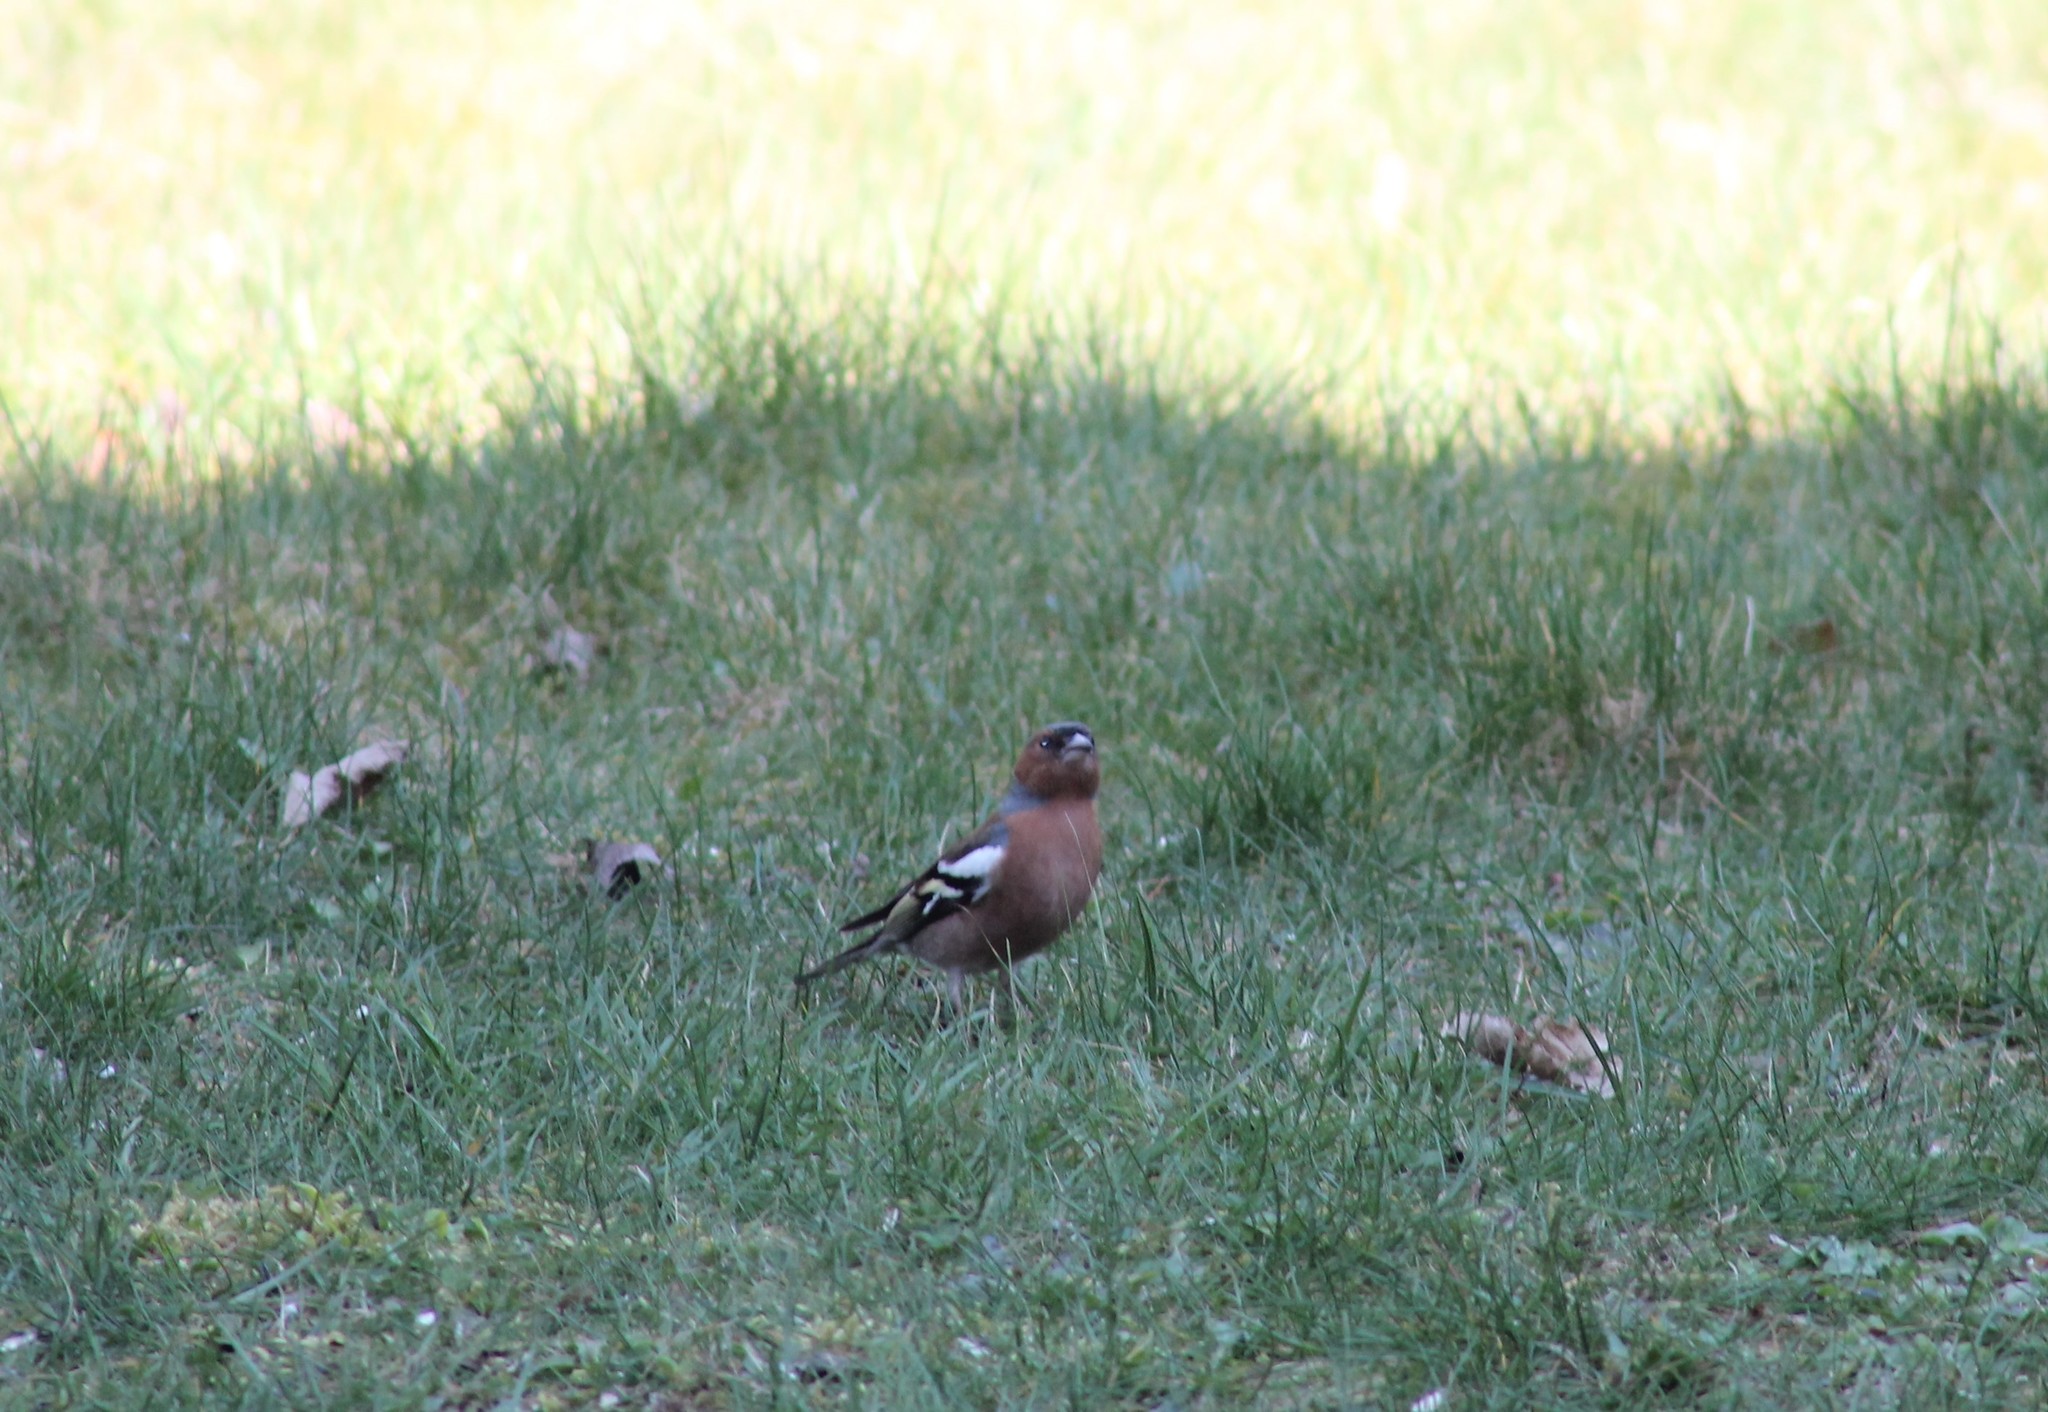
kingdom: Animalia
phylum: Chordata
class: Aves
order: Passeriformes
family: Fringillidae
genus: Fringilla
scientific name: Fringilla coelebs
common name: Common chaffinch
